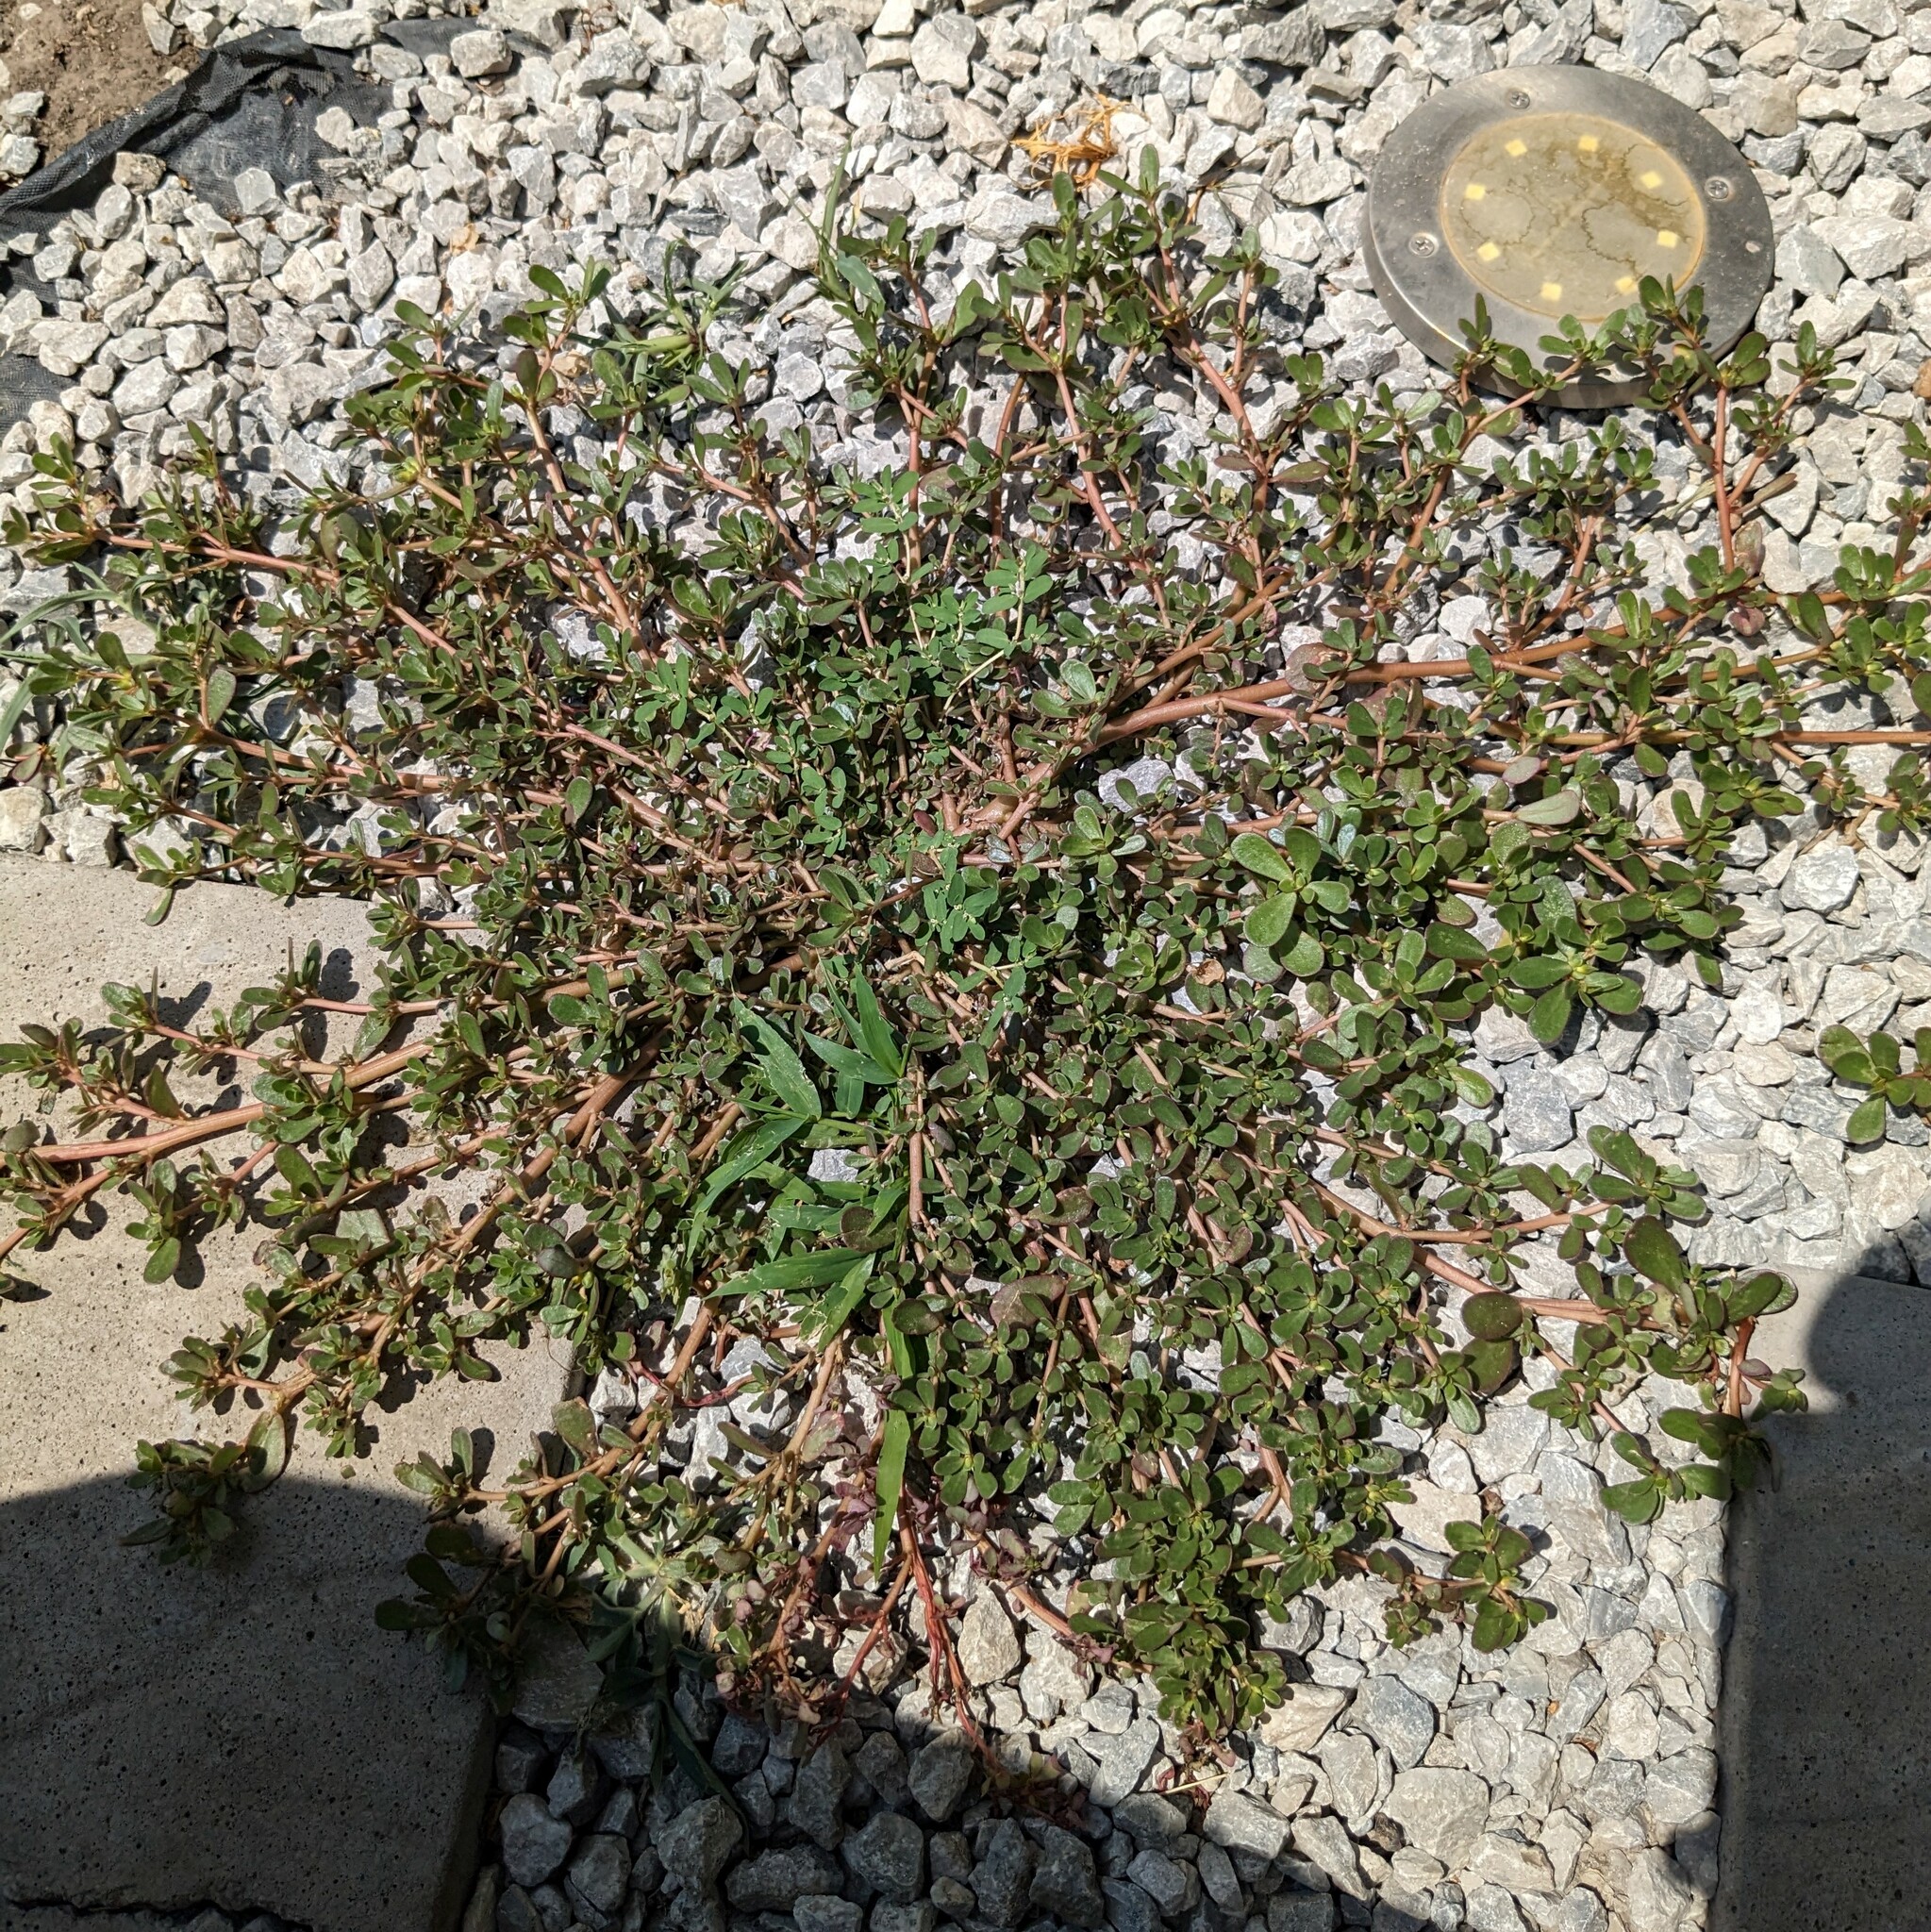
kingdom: Plantae
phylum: Tracheophyta
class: Magnoliopsida
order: Caryophyllales
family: Portulacaceae
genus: Portulaca
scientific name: Portulaca oleracea
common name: Common purslane
